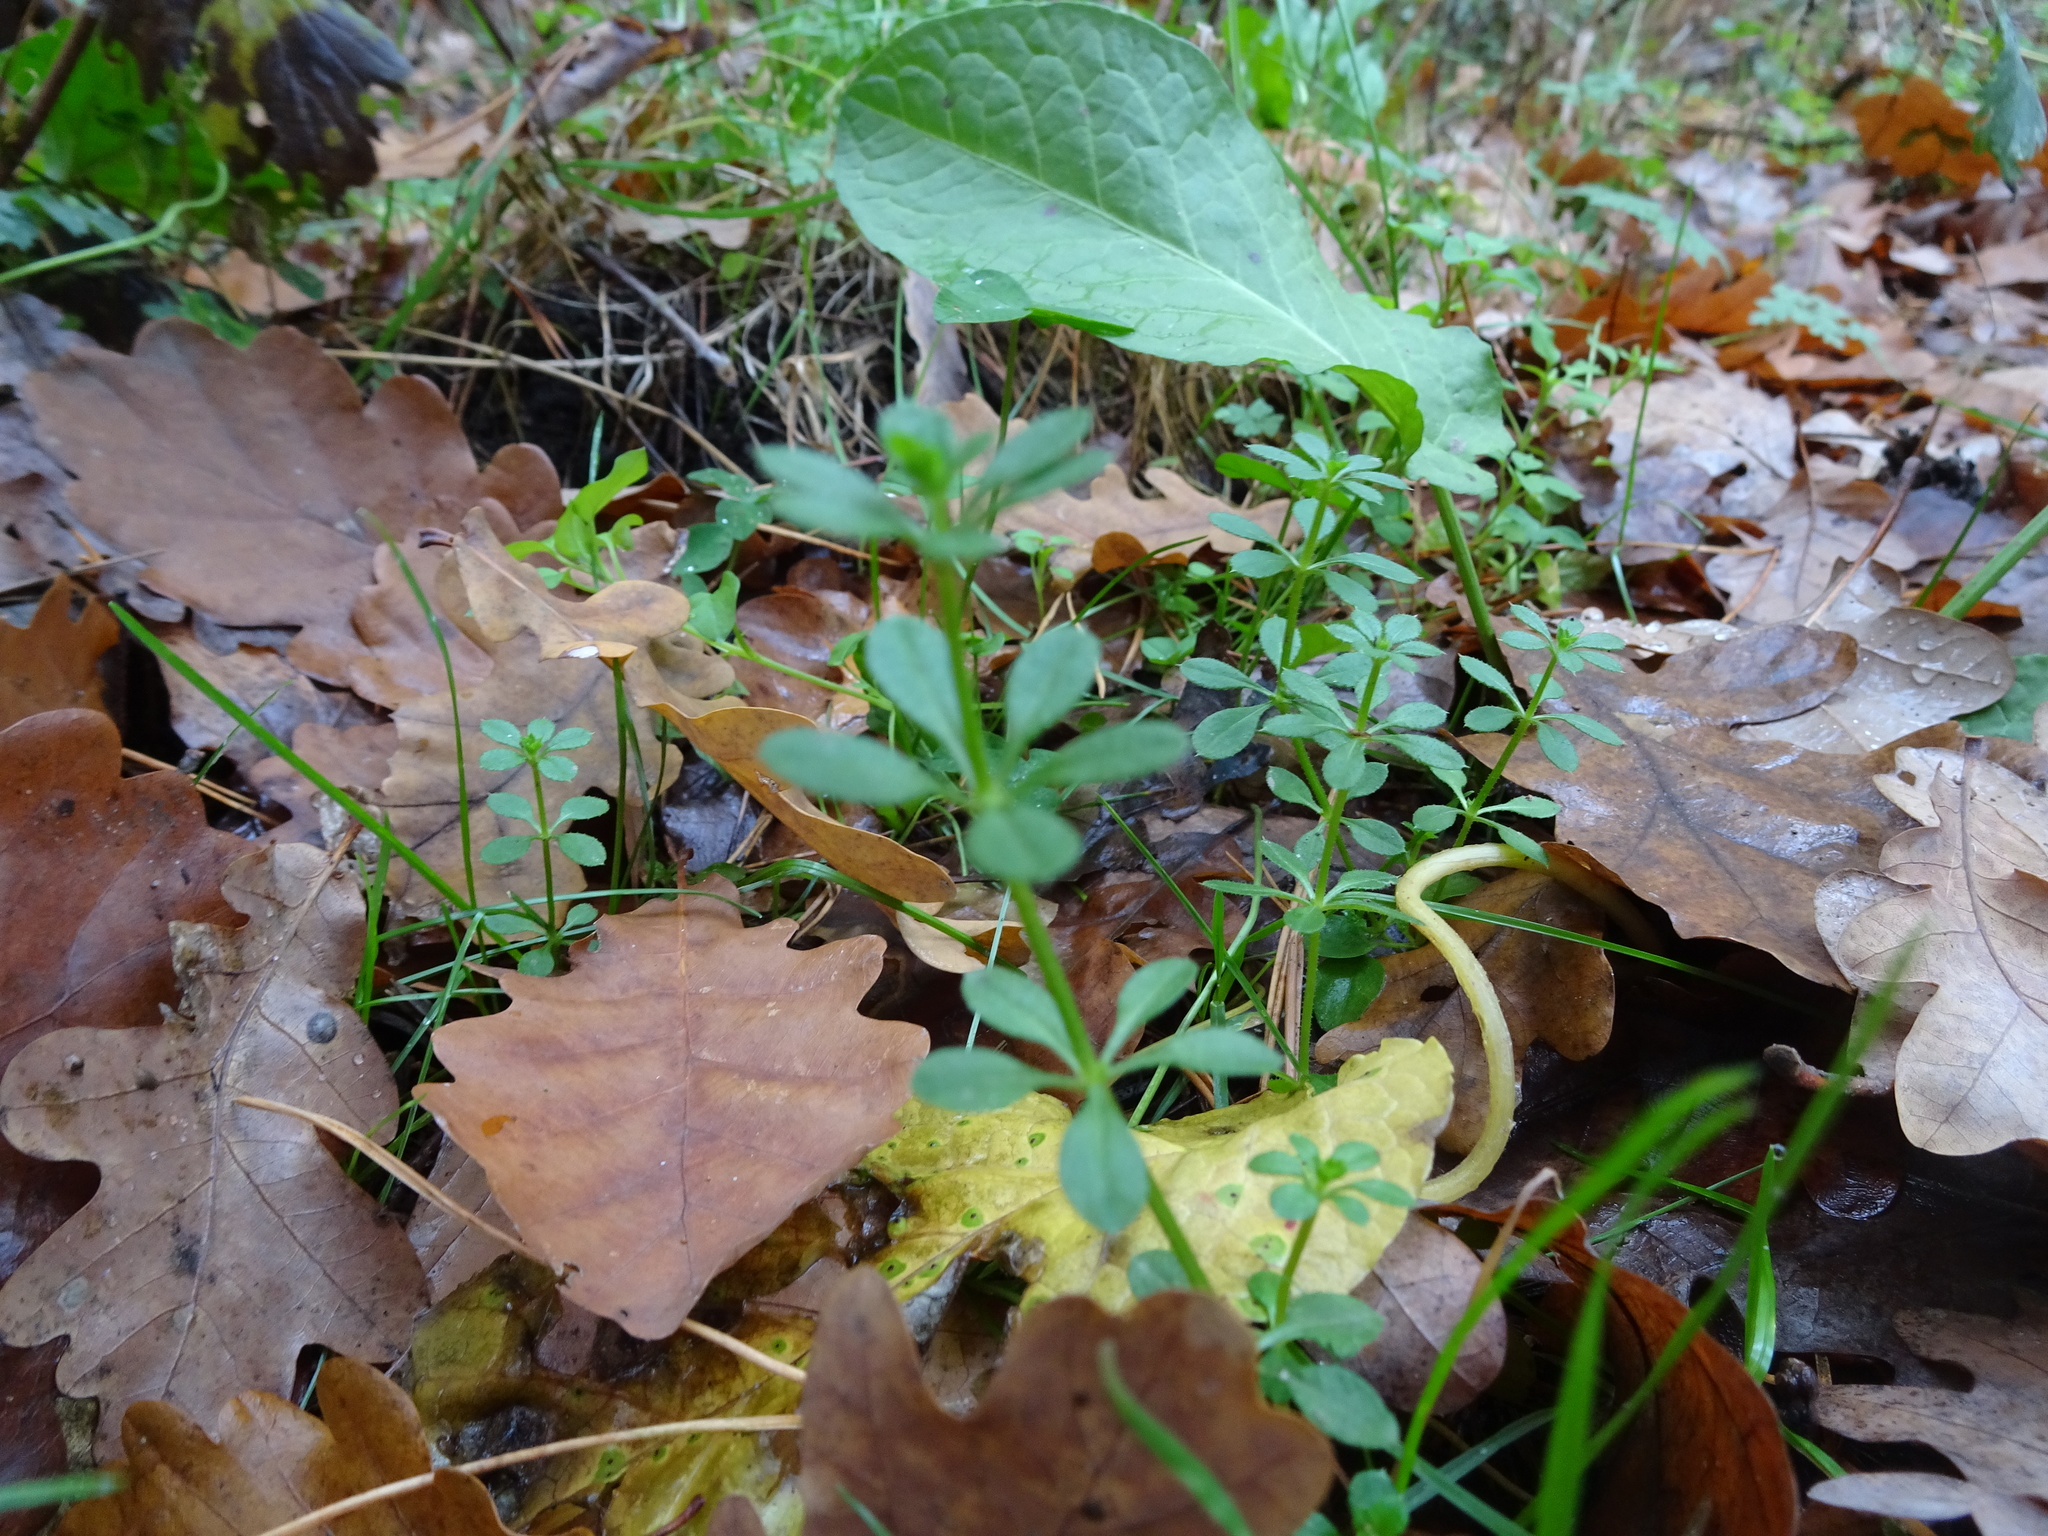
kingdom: Plantae
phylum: Tracheophyta
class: Magnoliopsida
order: Gentianales
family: Rubiaceae
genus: Galium
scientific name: Galium aparine
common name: Cleavers
